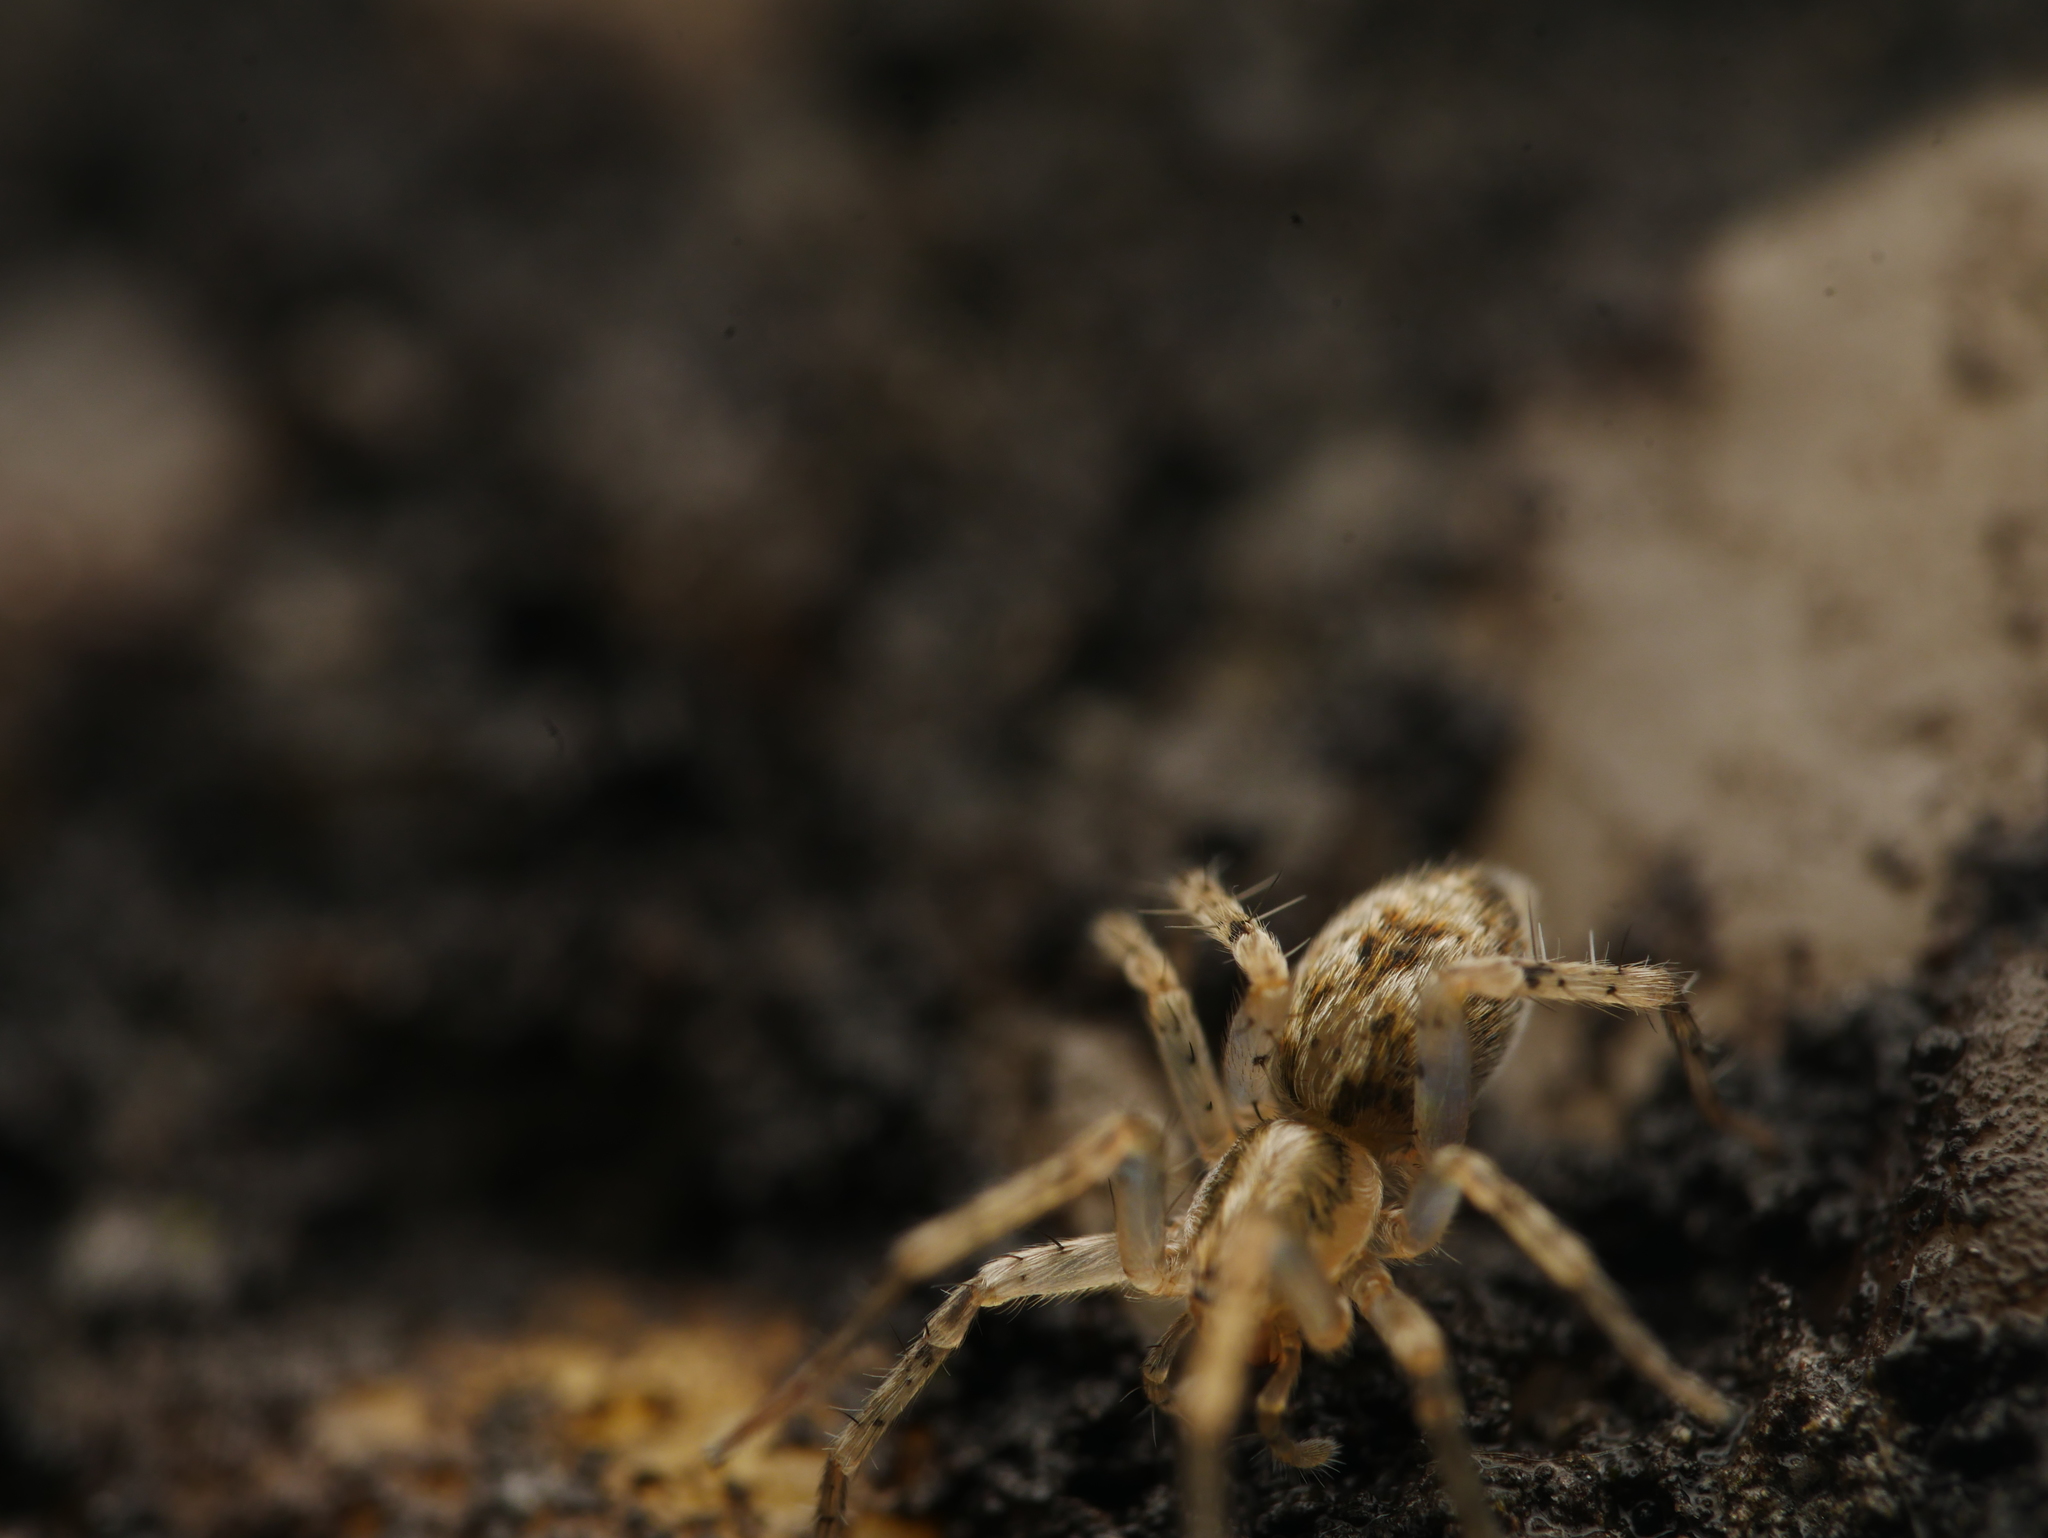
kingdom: Animalia
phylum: Arthropoda
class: Arachnida
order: Araneae
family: Anyphaenidae
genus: Anyphaena
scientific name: Anyphaena accentuata
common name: Buzzing spider
